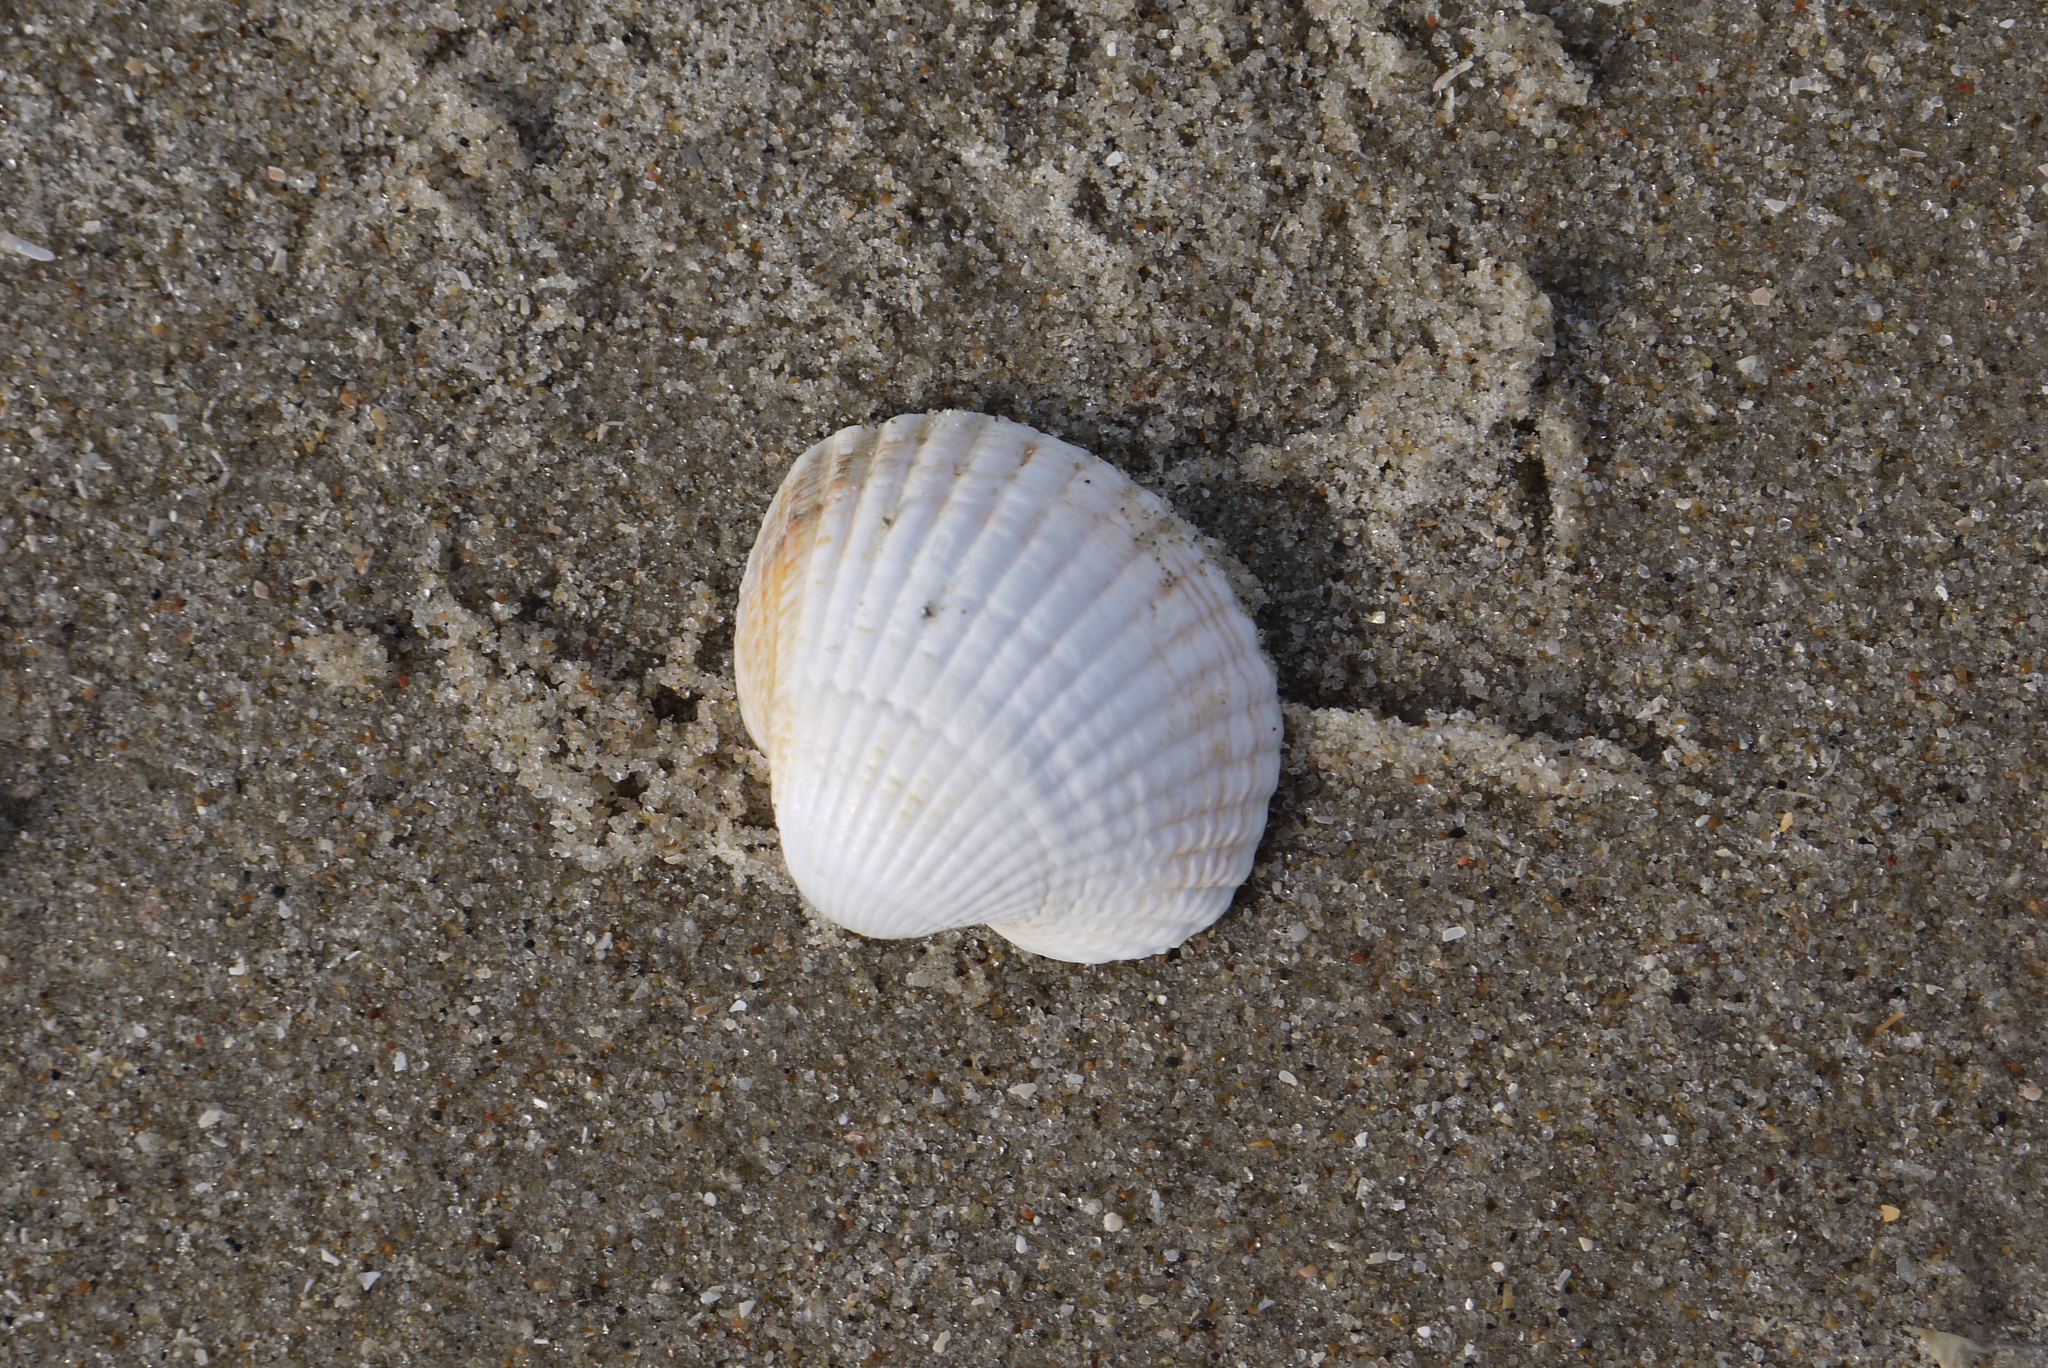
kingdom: Animalia
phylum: Mollusca
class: Bivalvia
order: Cardiida
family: Cardiidae
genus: Cerastoderma
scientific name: Cerastoderma edule
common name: Common cockle
